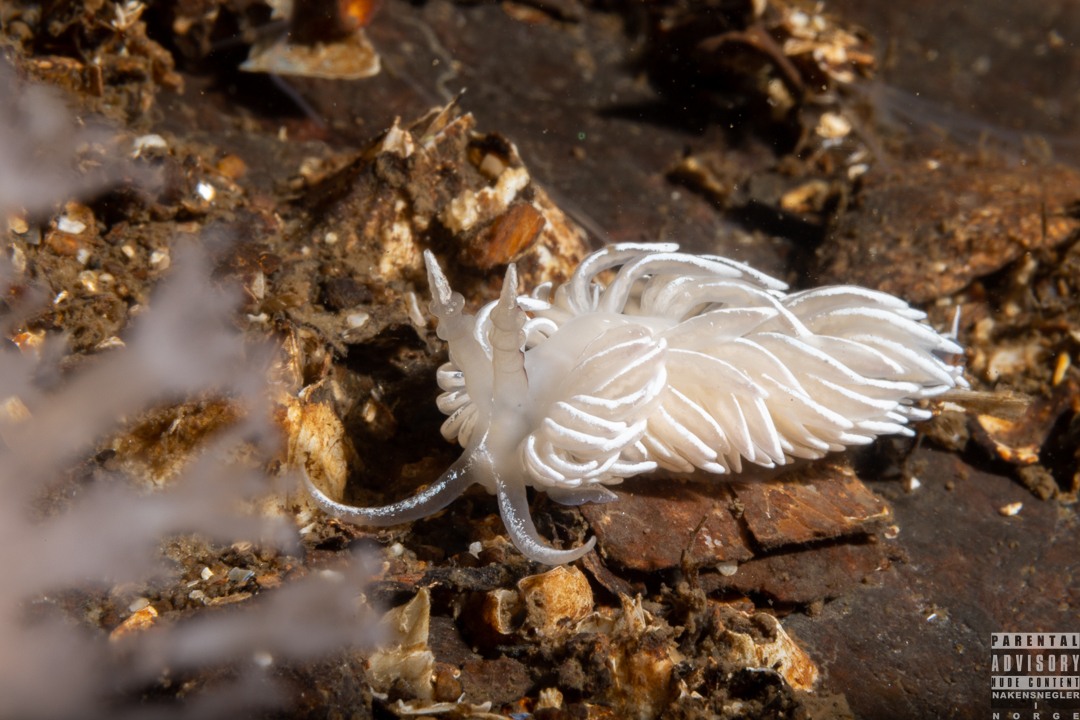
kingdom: Animalia
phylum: Mollusca
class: Gastropoda
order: Nudibranchia
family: Facelinidae
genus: Favorinus
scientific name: Favorinus blianus
